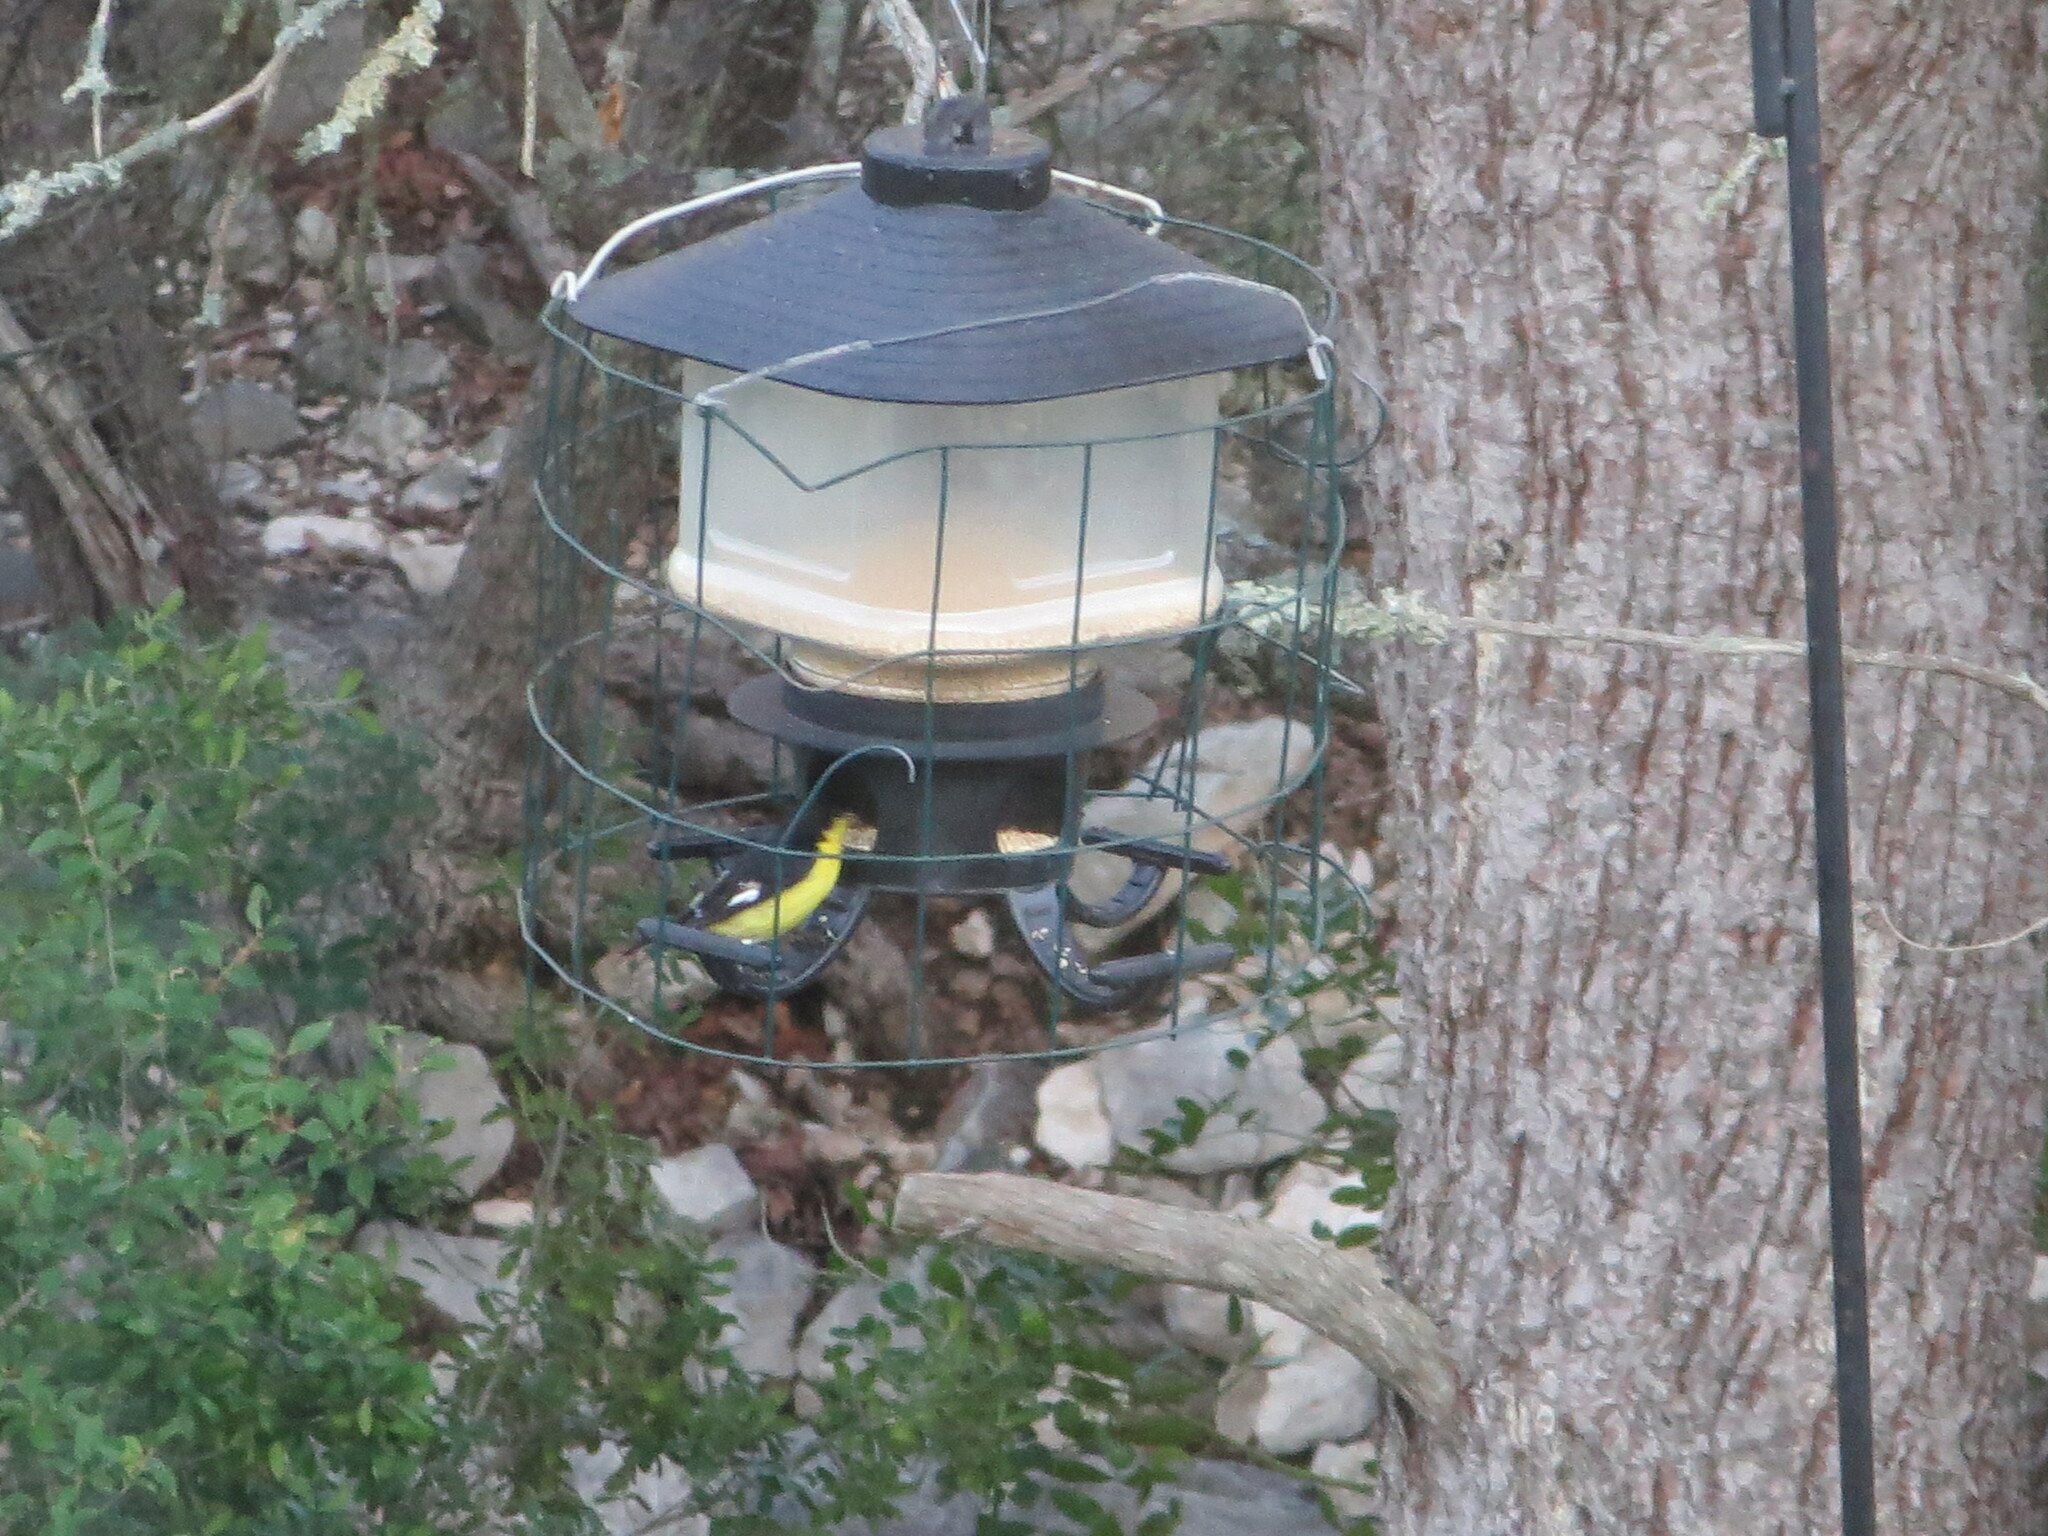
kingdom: Animalia
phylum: Chordata
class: Aves
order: Passeriformes
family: Fringillidae
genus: Spinus
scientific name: Spinus psaltria
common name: Lesser goldfinch
